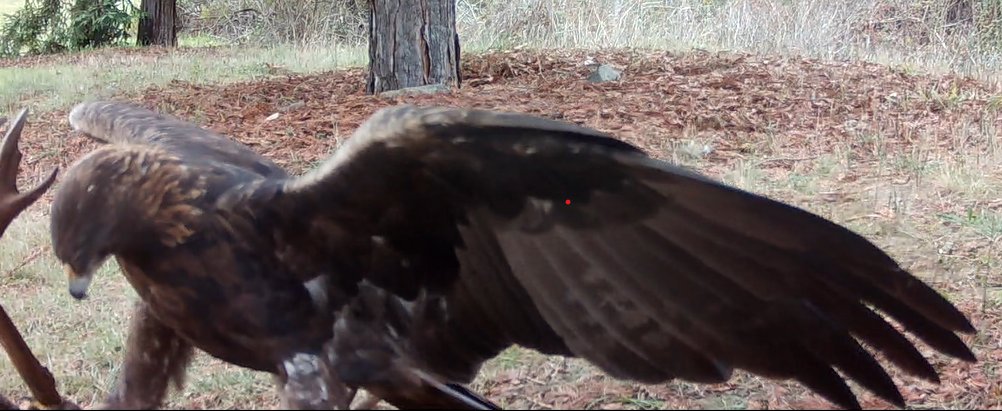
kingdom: Animalia
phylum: Chordata
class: Aves
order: Accipitriformes
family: Accipitridae
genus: Aquila
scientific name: Aquila chrysaetos
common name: Golden eagle
